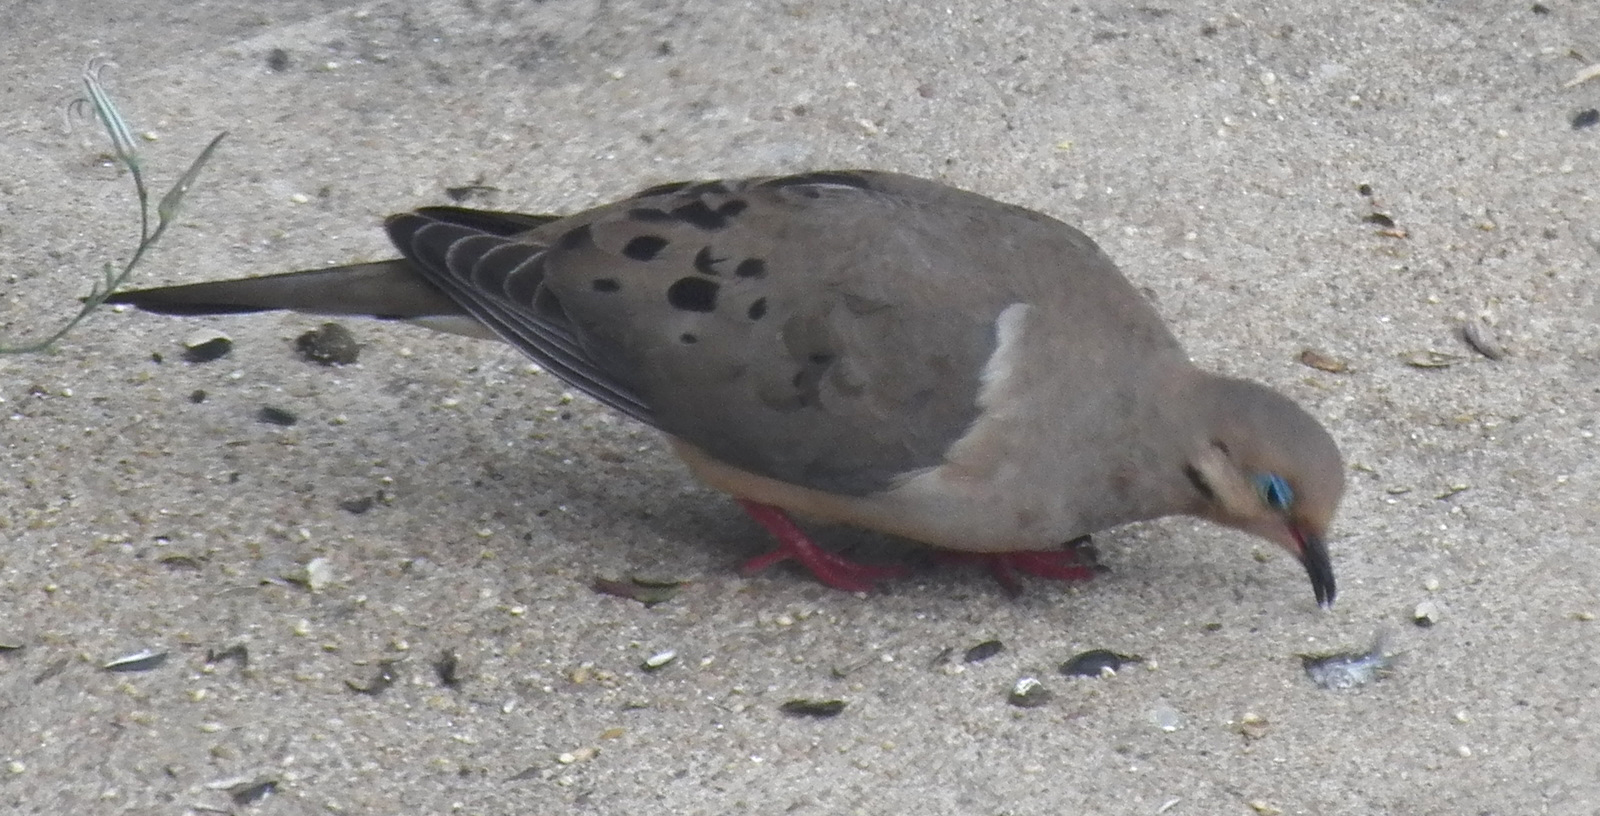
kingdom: Animalia
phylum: Chordata
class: Aves
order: Columbiformes
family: Columbidae
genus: Zenaida
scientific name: Zenaida macroura
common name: Mourning dove
